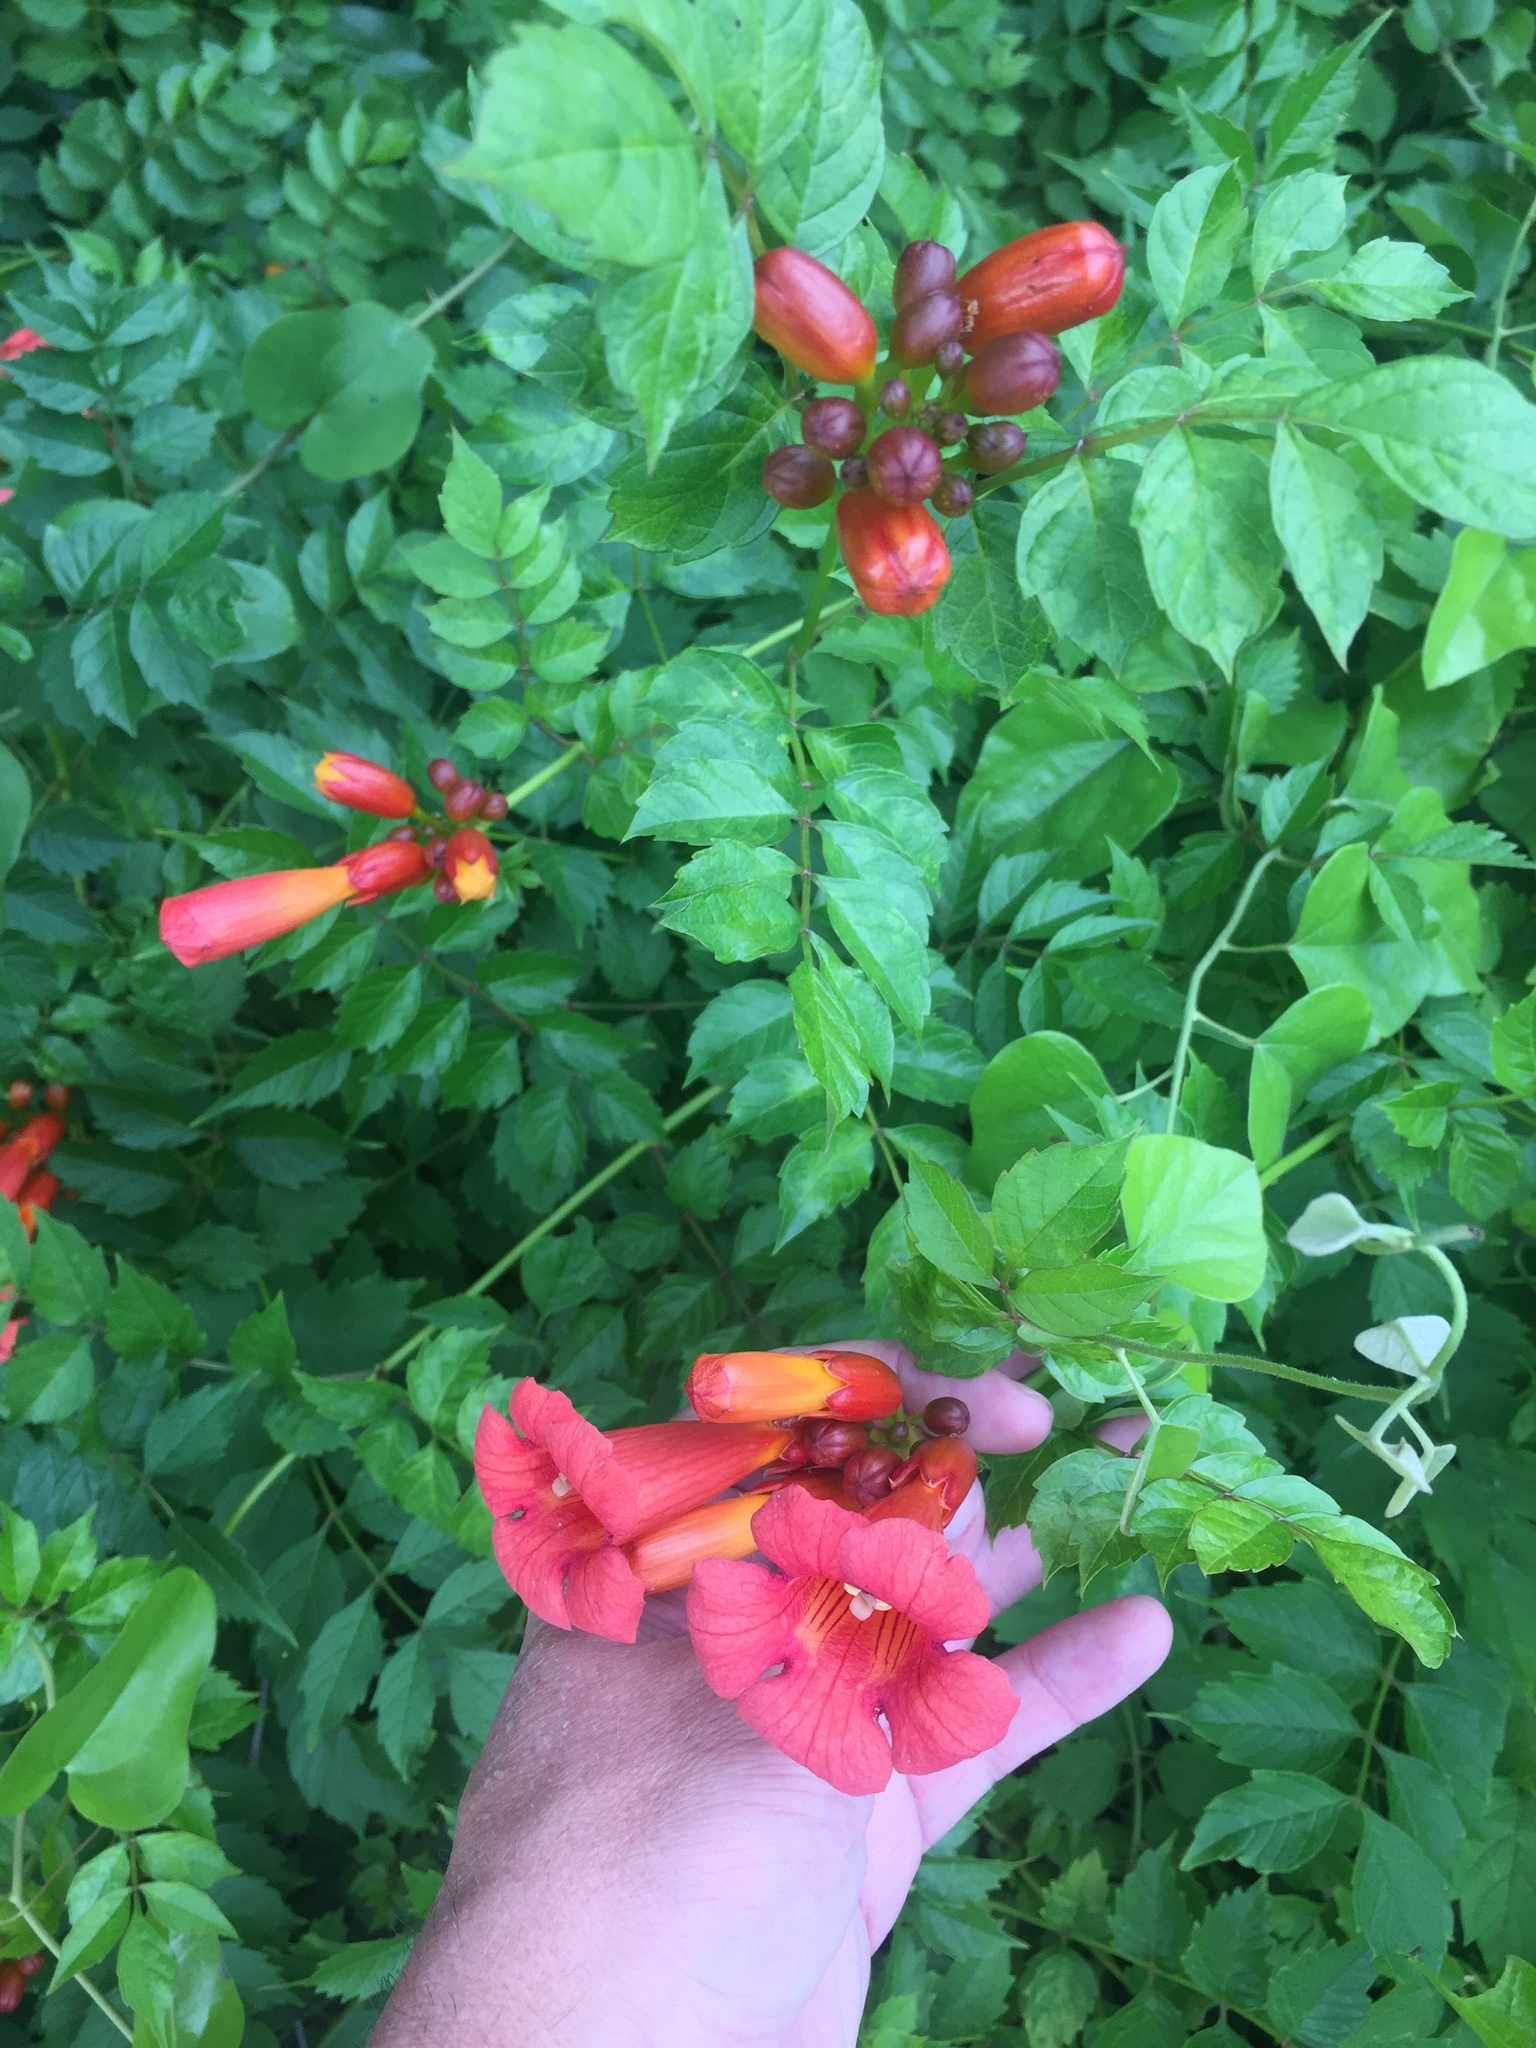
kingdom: Plantae
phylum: Tracheophyta
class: Magnoliopsida
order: Lamiales
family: Bignoniaceae
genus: Campsis
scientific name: Campsis radicans
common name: Trumpet-creeper
